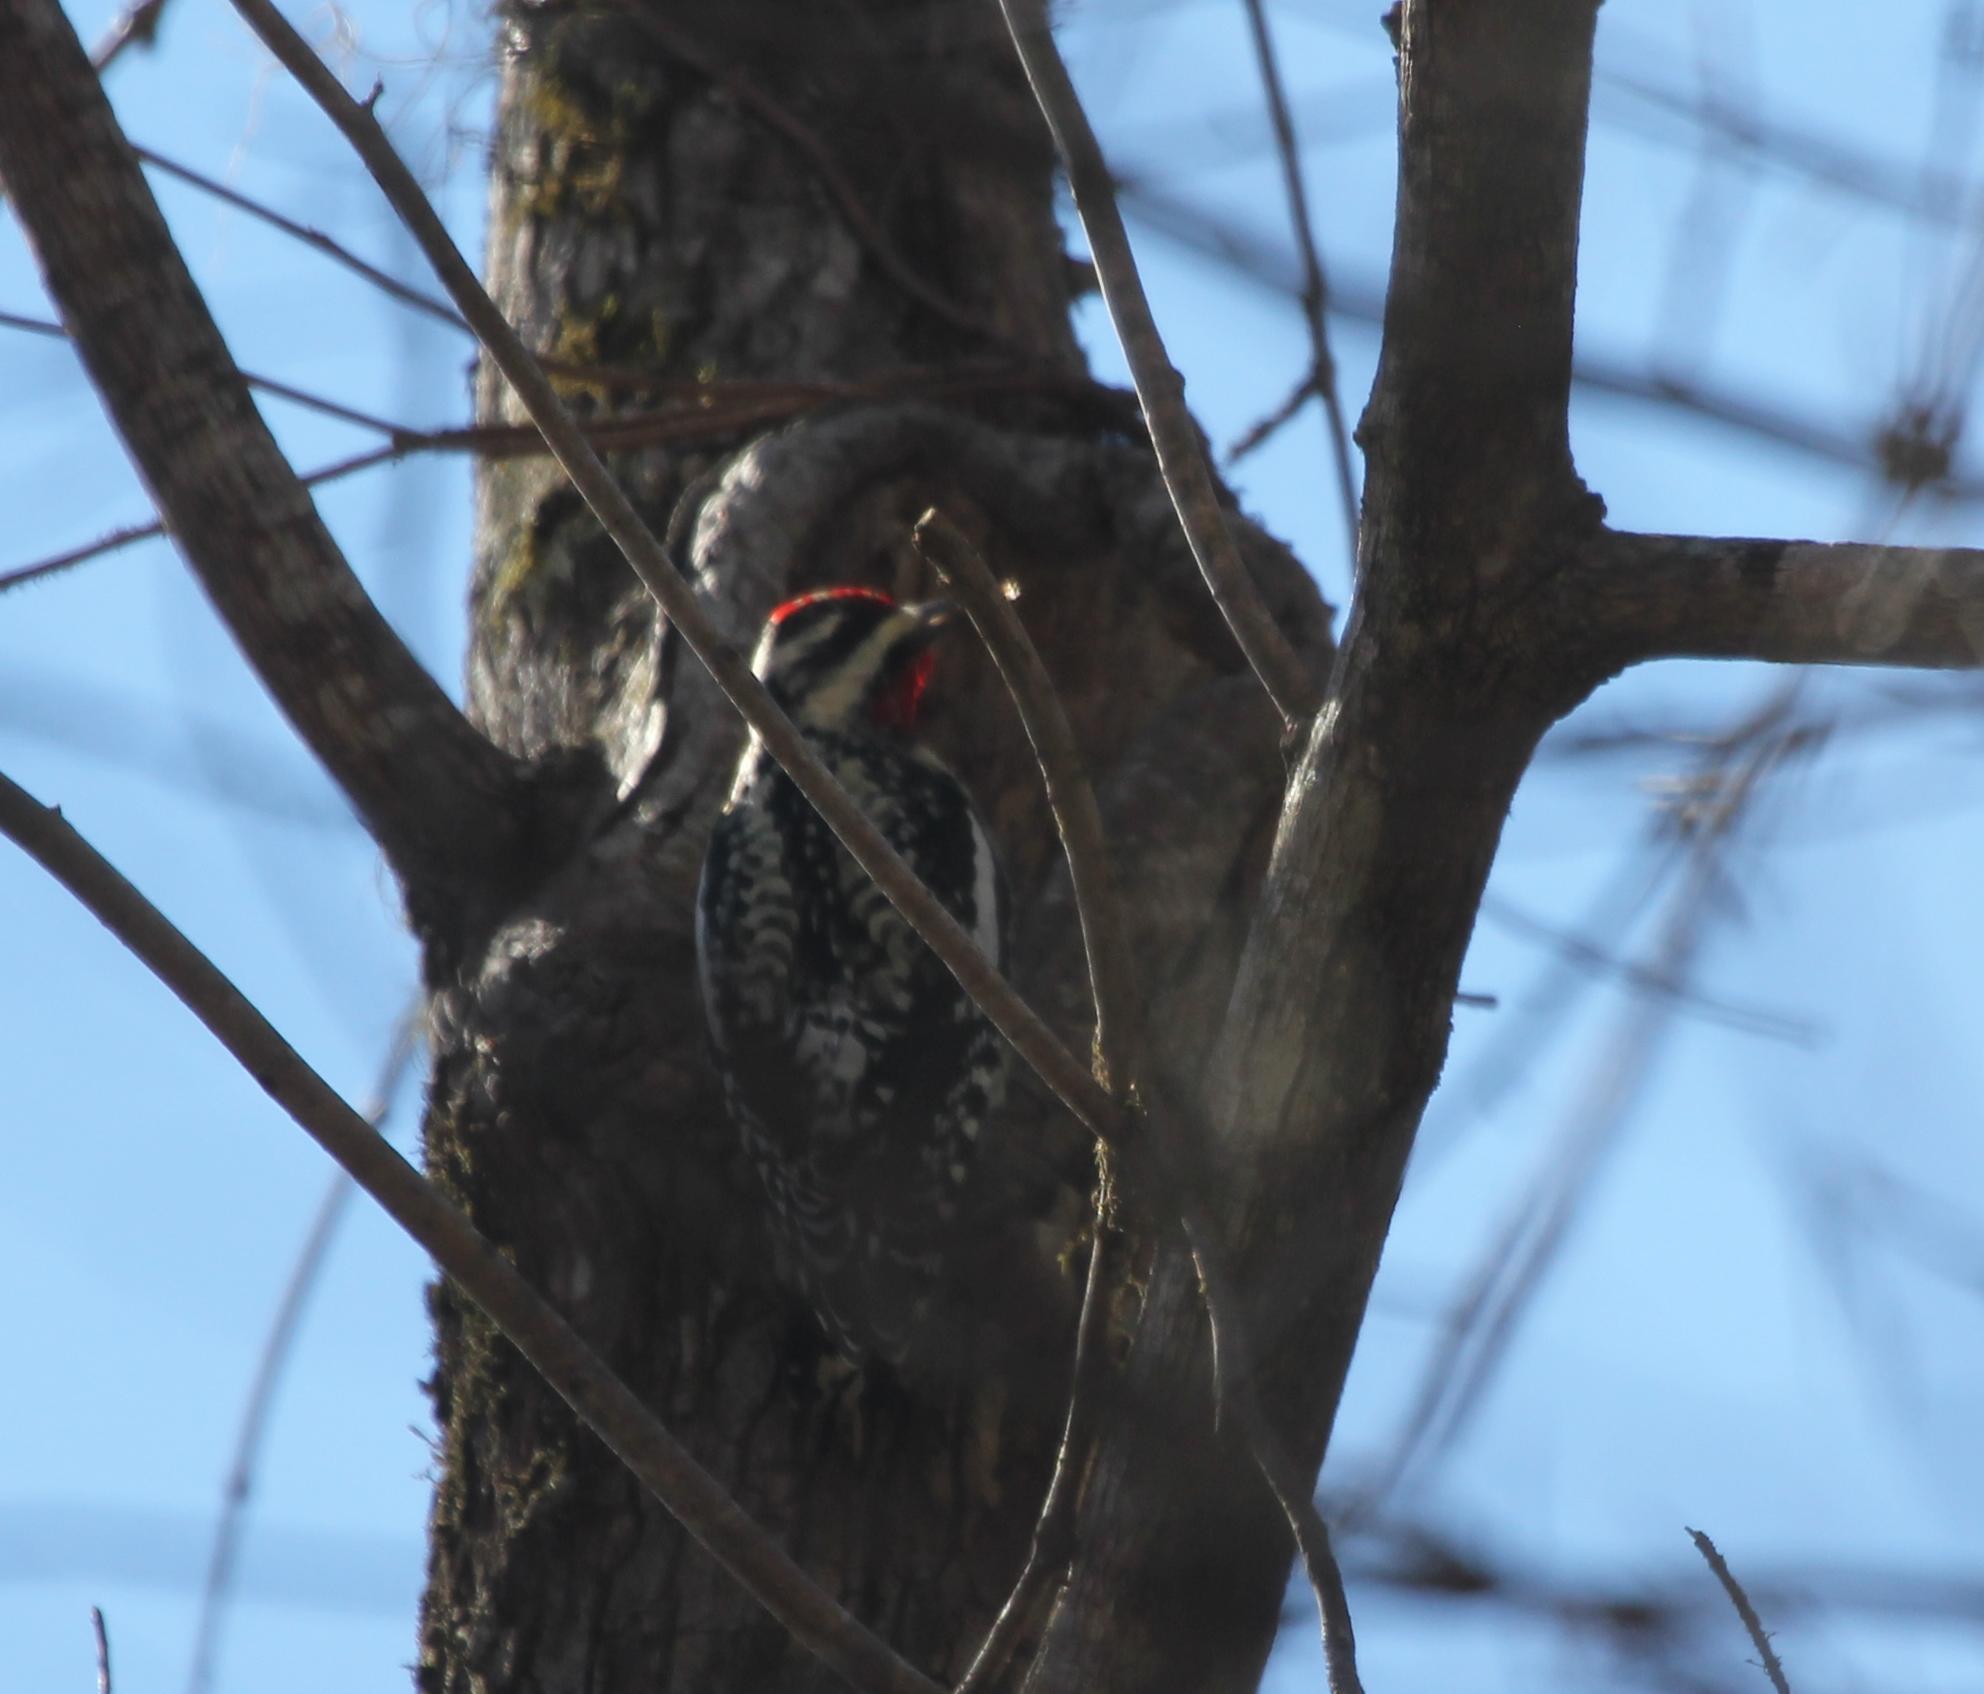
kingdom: Animalia
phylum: Chordata
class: Aves
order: Piciformes
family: Picidae
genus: Sphyrapicus
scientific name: Sphyrapicus varius
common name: Yellow-bellied sapsucker
